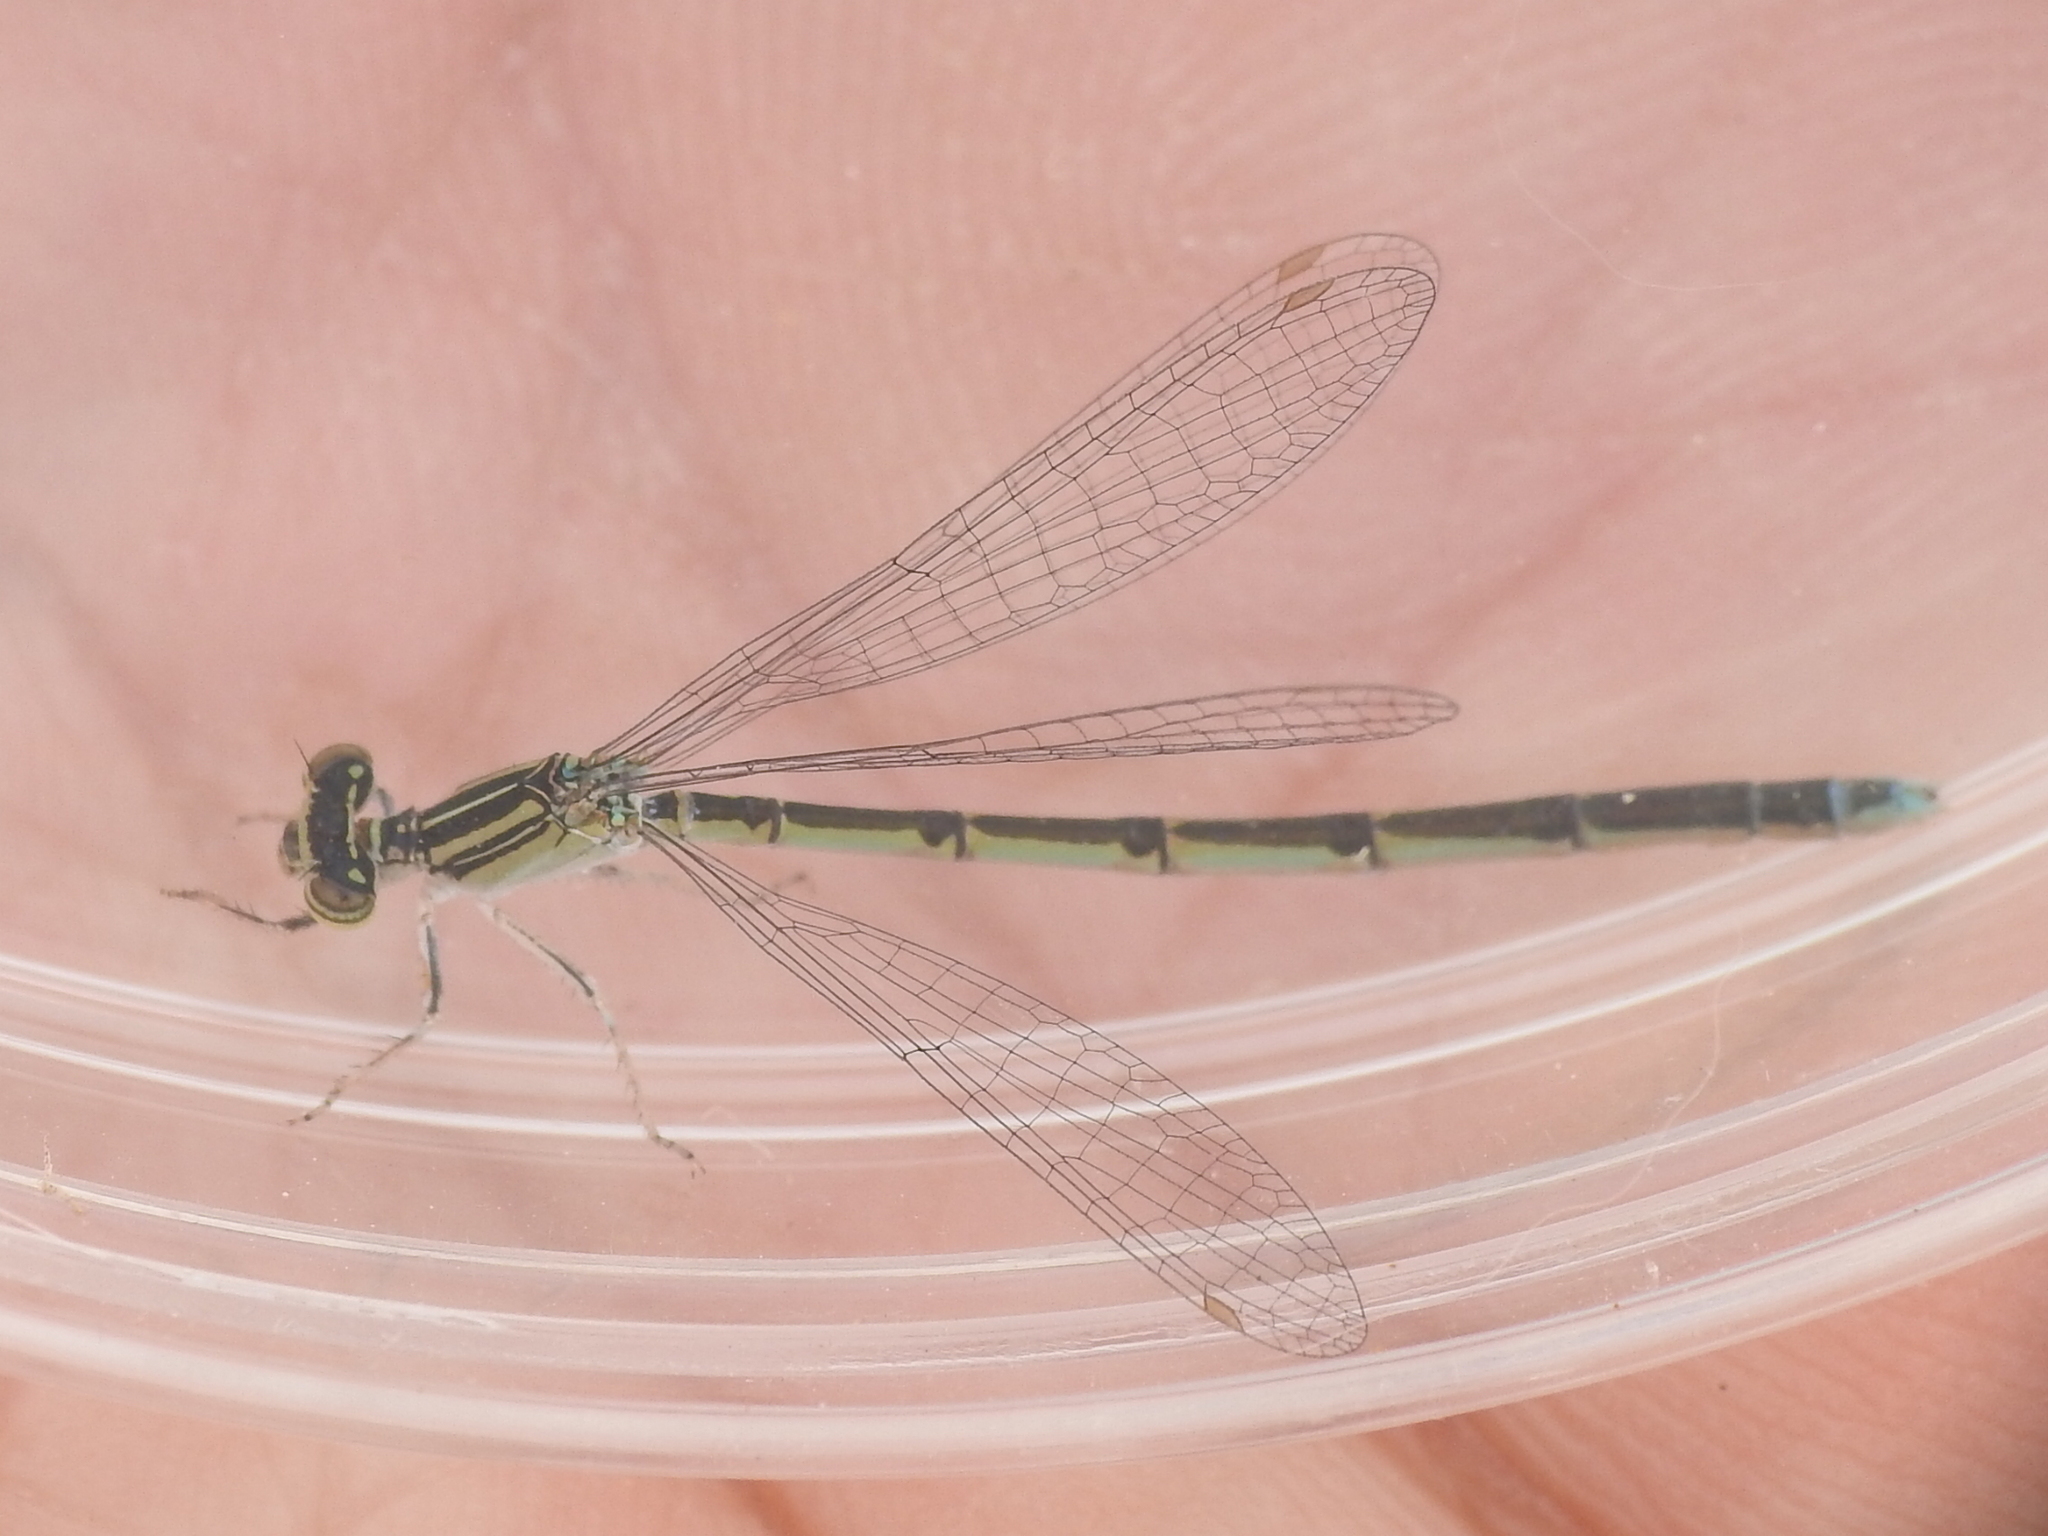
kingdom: Animalia
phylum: Arthropoda
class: Insecta
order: Odonata
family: Coenagrionidae
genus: Enallagma
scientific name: Enallagma basidens
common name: Double-striped bluet
